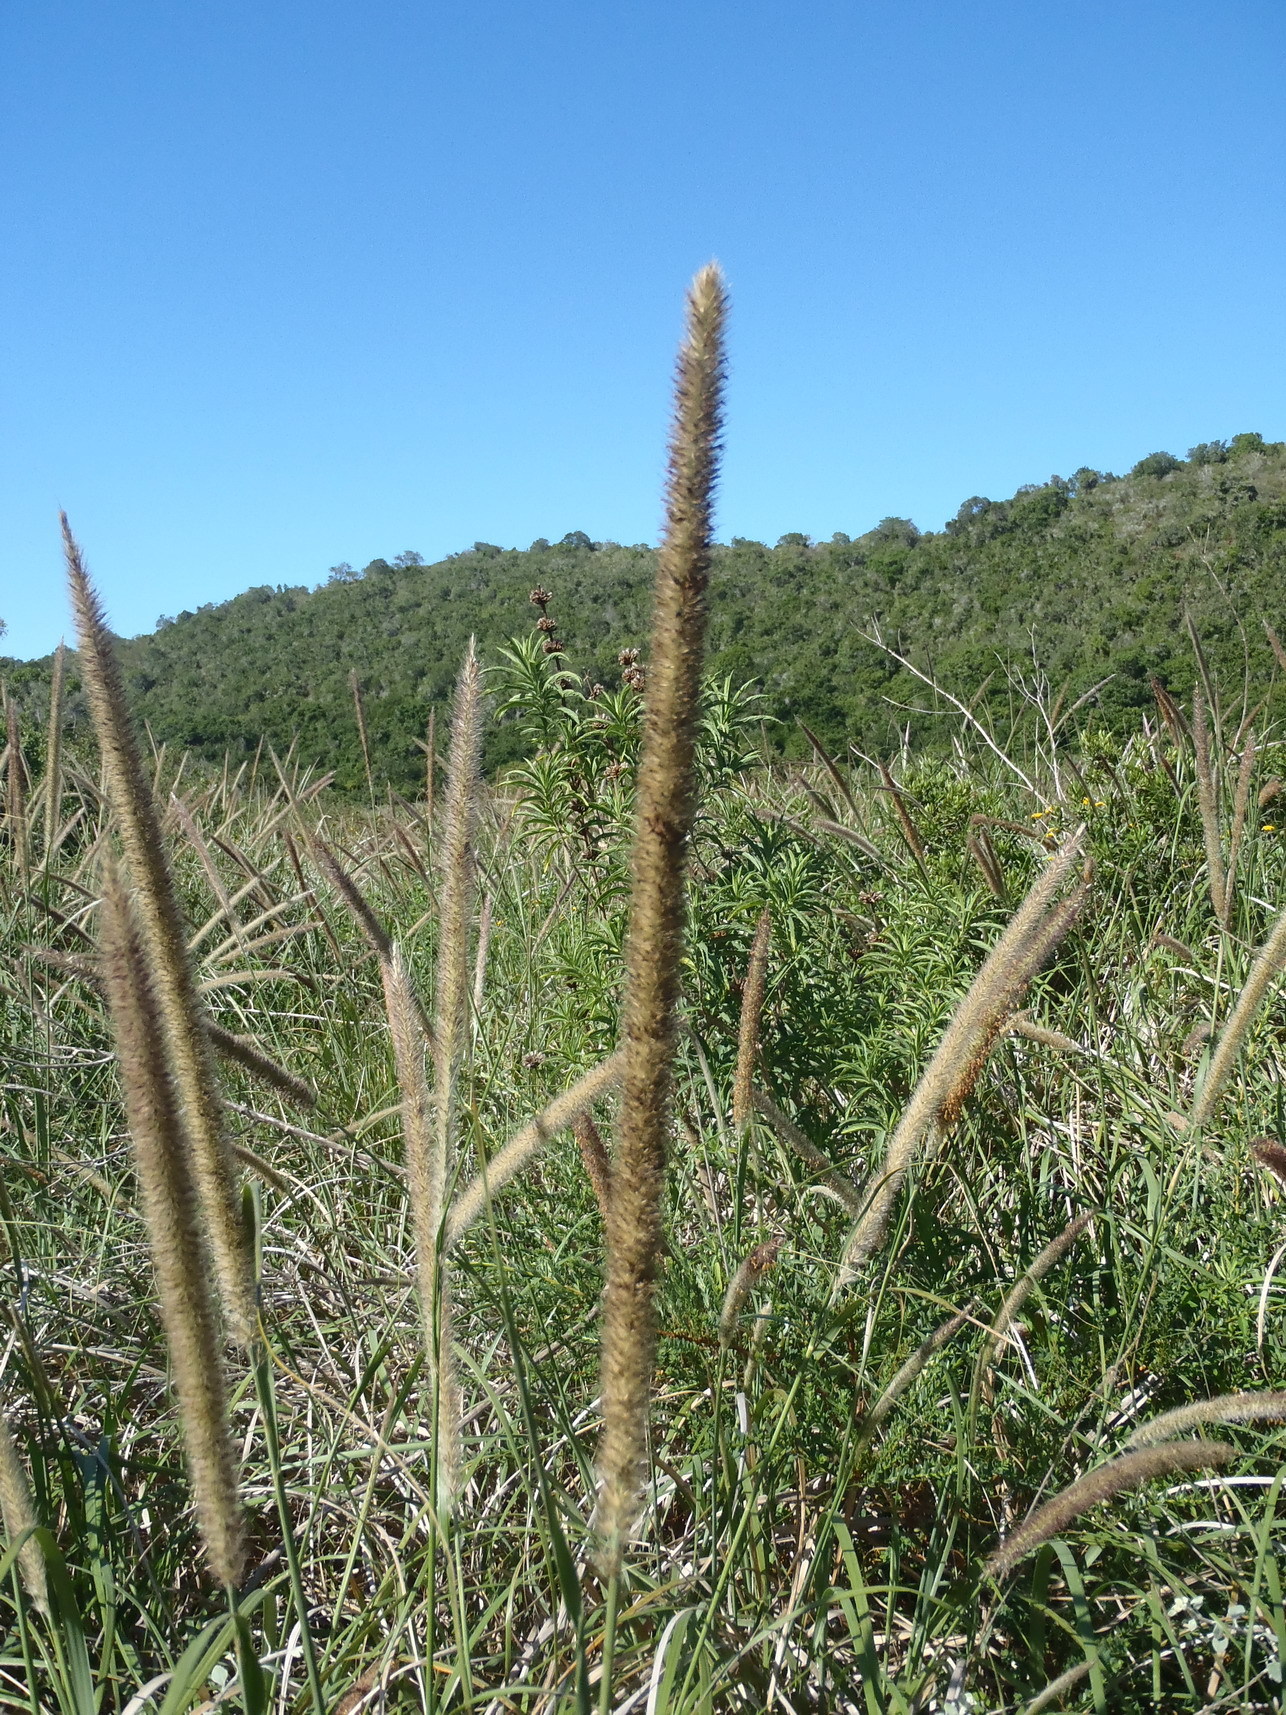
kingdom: Plantae
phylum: Tracheophyta
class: Liliopsida
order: Poales
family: Poaceae
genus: Cenchrus
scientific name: Cenchrus caudatus
